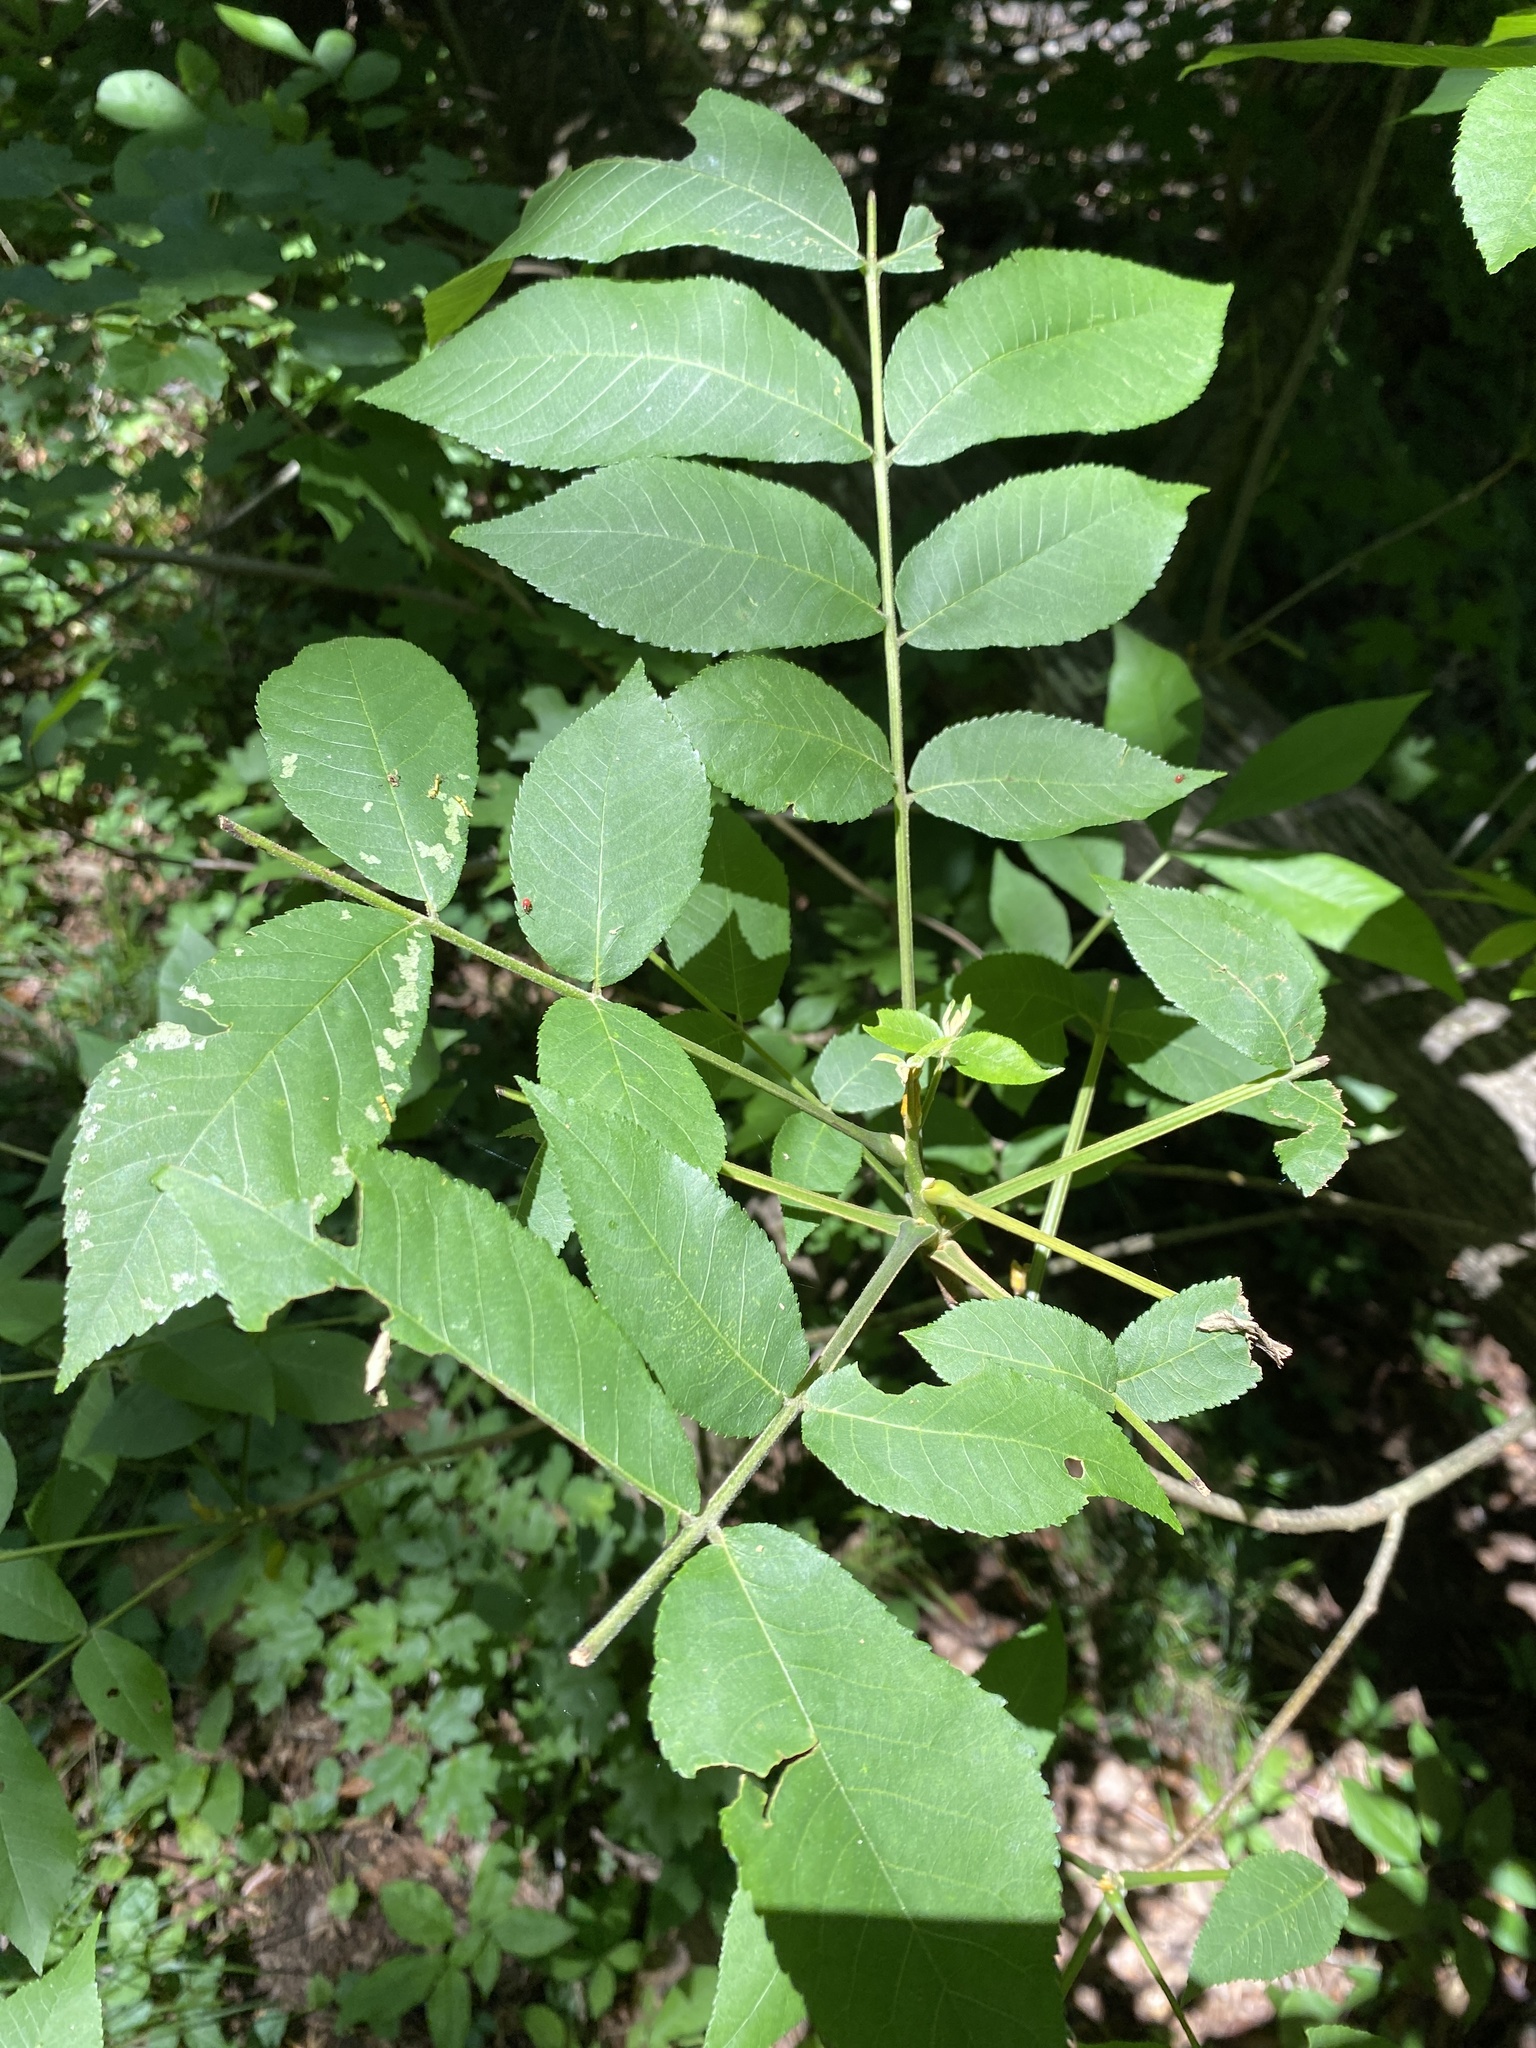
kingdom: Plantae
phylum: Tracheophyta
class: Magnoliopsida
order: Fagales
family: Juglandaceae
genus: Carya
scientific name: Carya cordiformis
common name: Bitternut hickory
